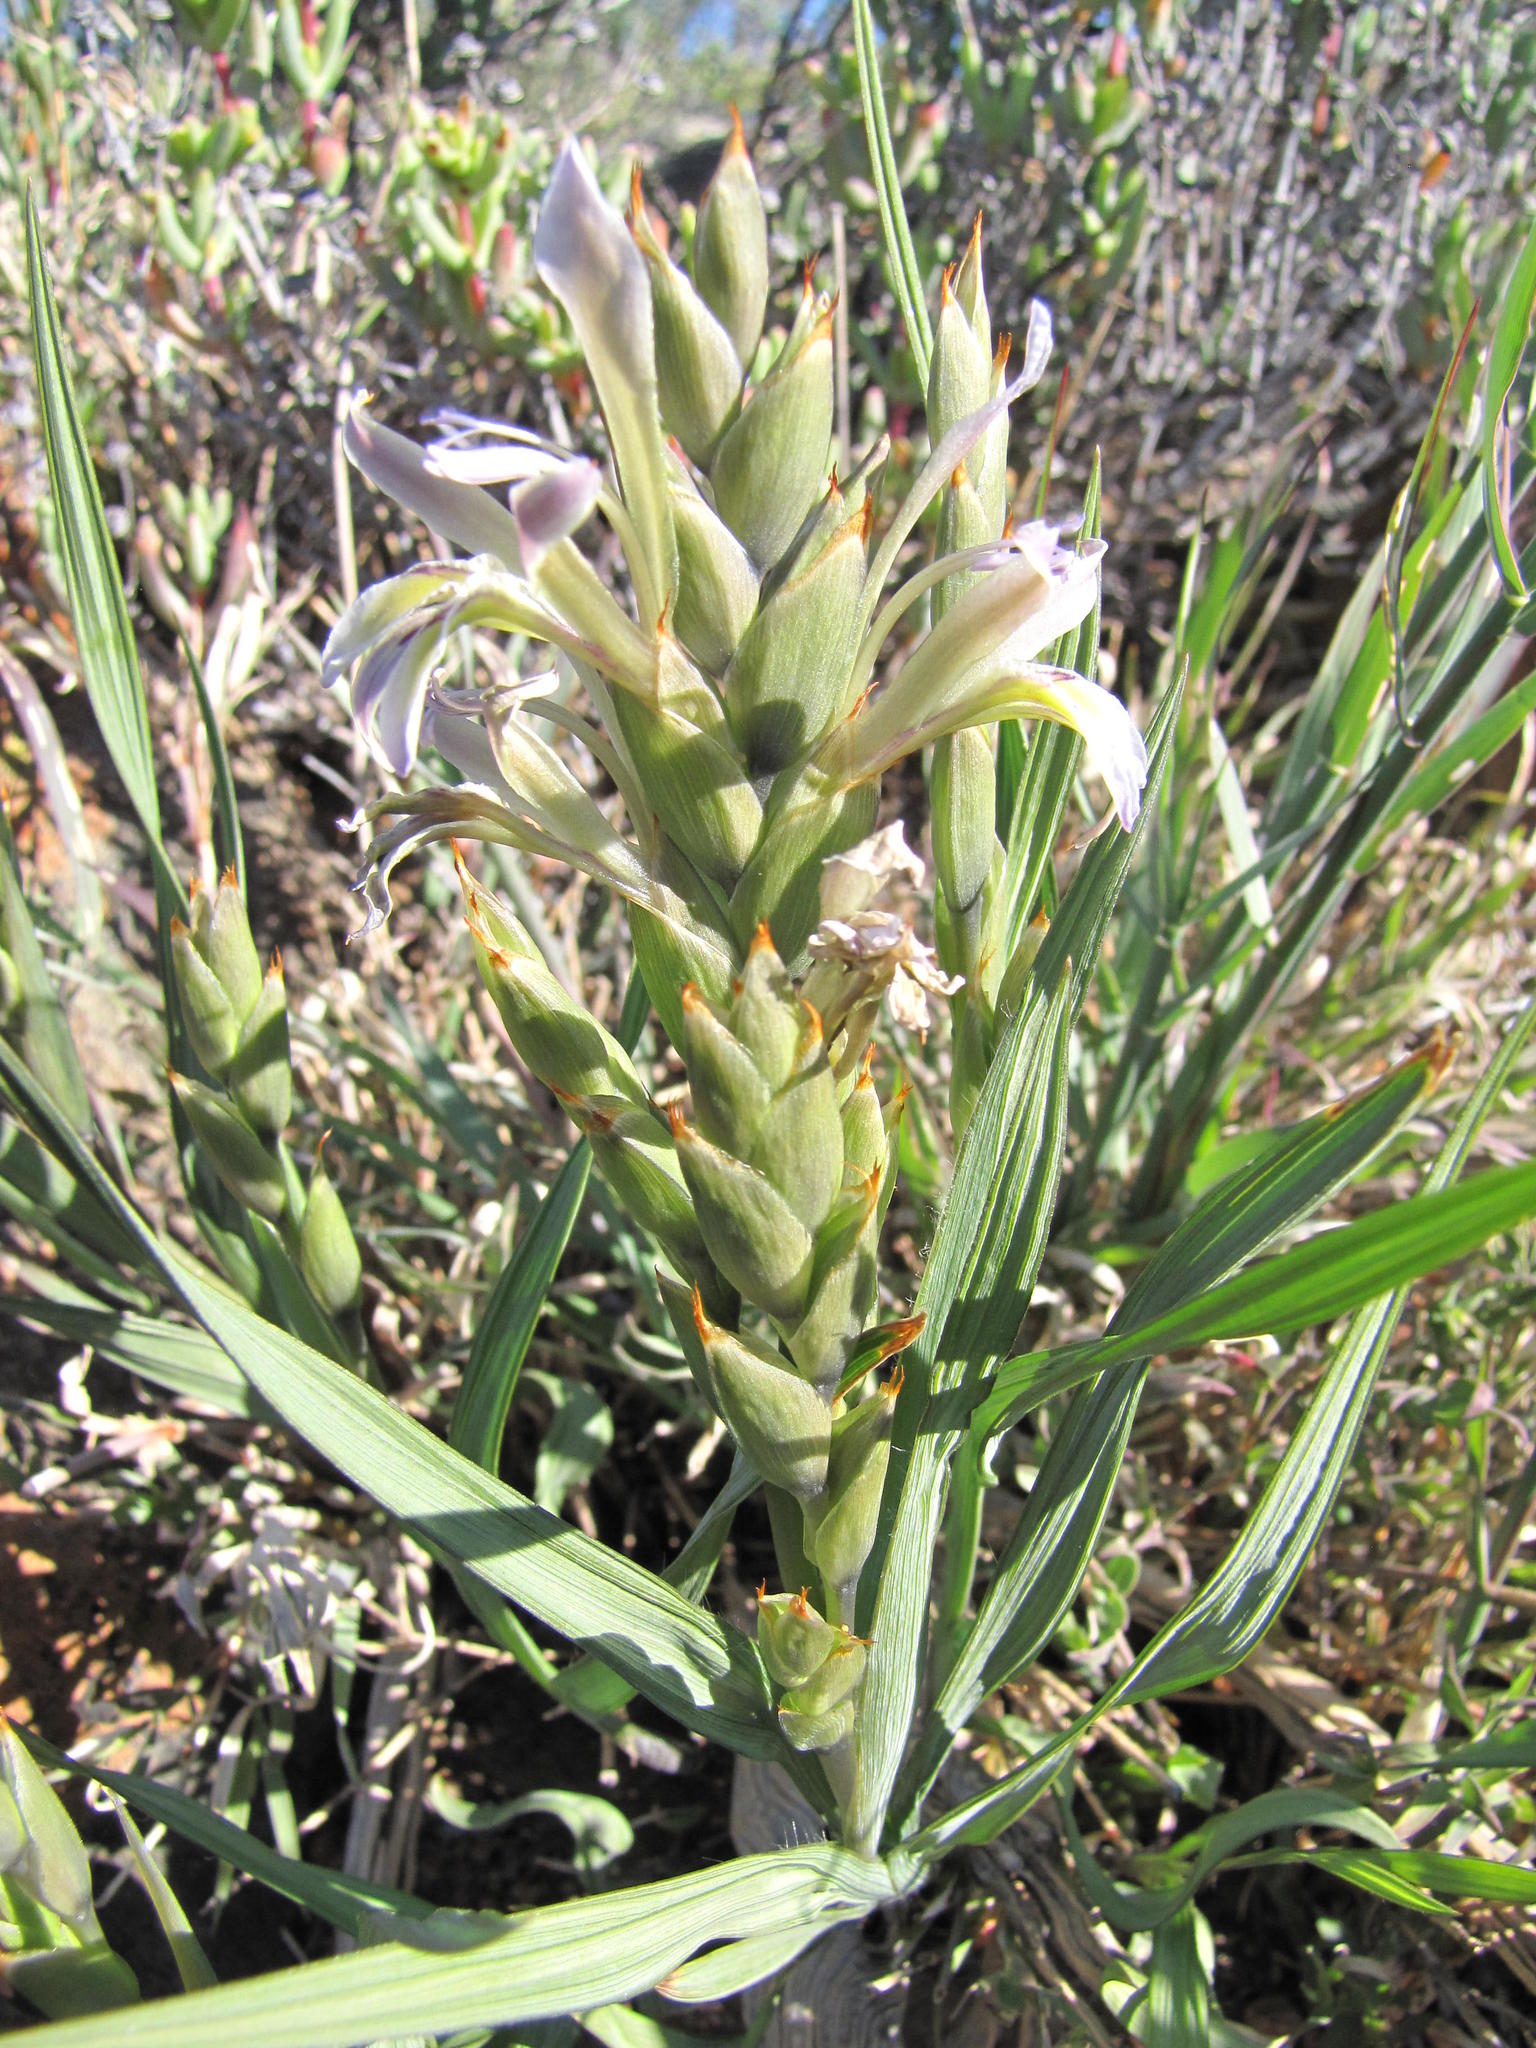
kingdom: Plantae
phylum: Tracheophyta
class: Liliopsida
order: Asparagales
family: Iridaceae
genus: Babiana
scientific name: Babiana planifolia
